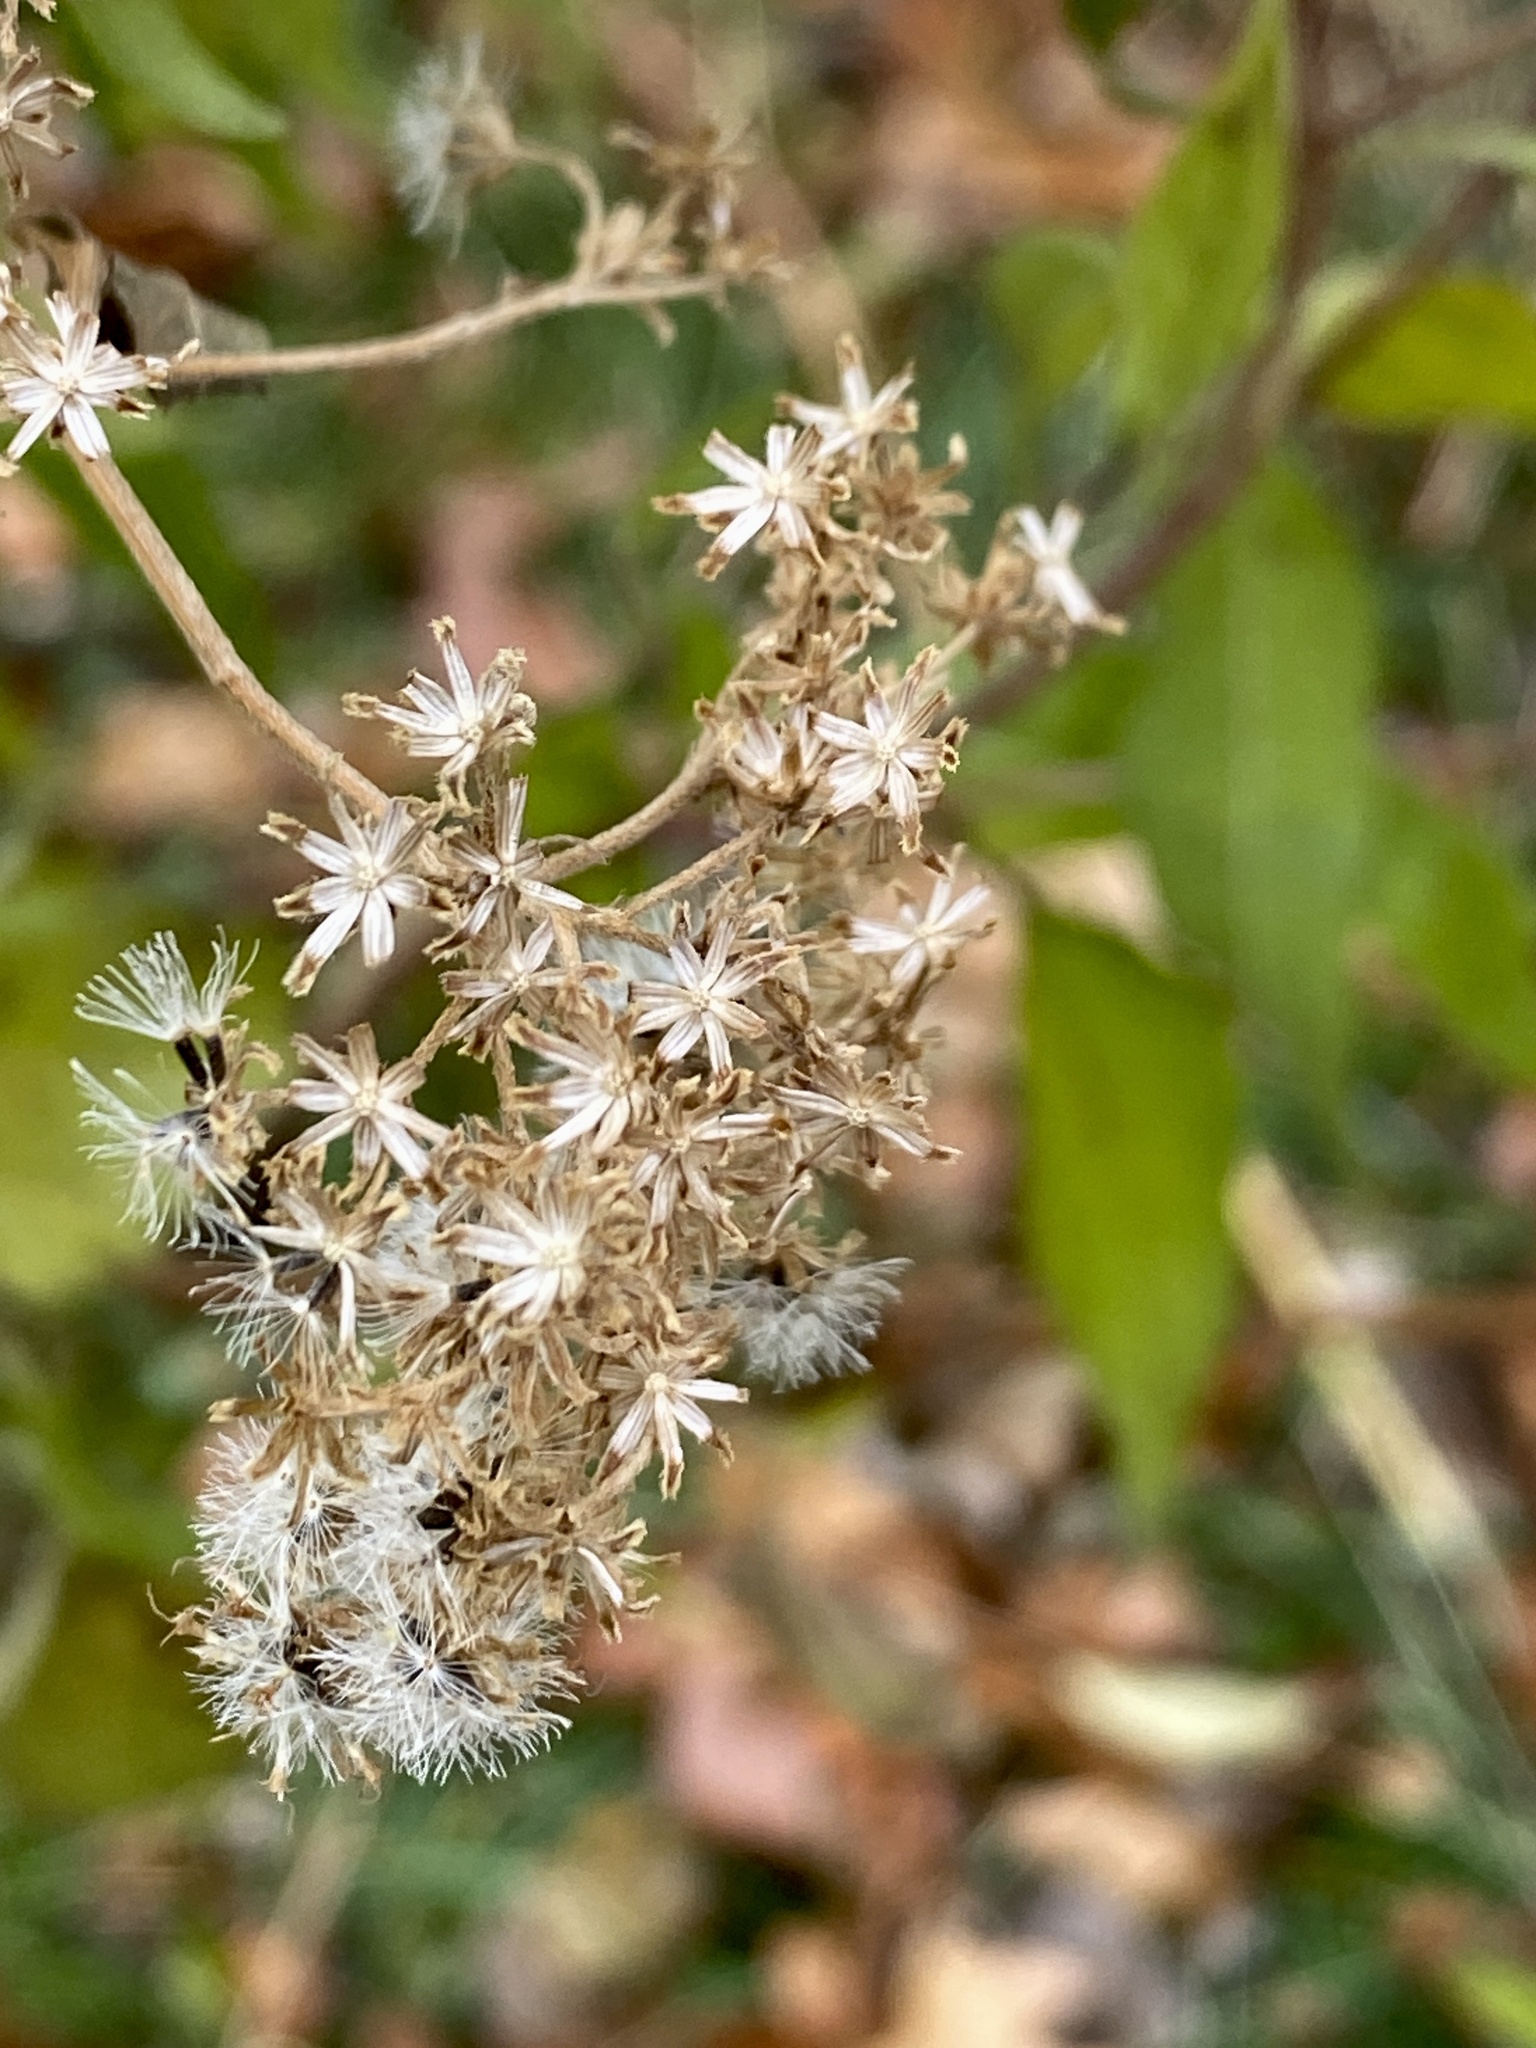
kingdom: Plantae
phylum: Tracheophyta
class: Magnoliopsida
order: Asterales
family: Asteraceae
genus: Eupatorium
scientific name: Eupatorium serotinum
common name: Late boneset
